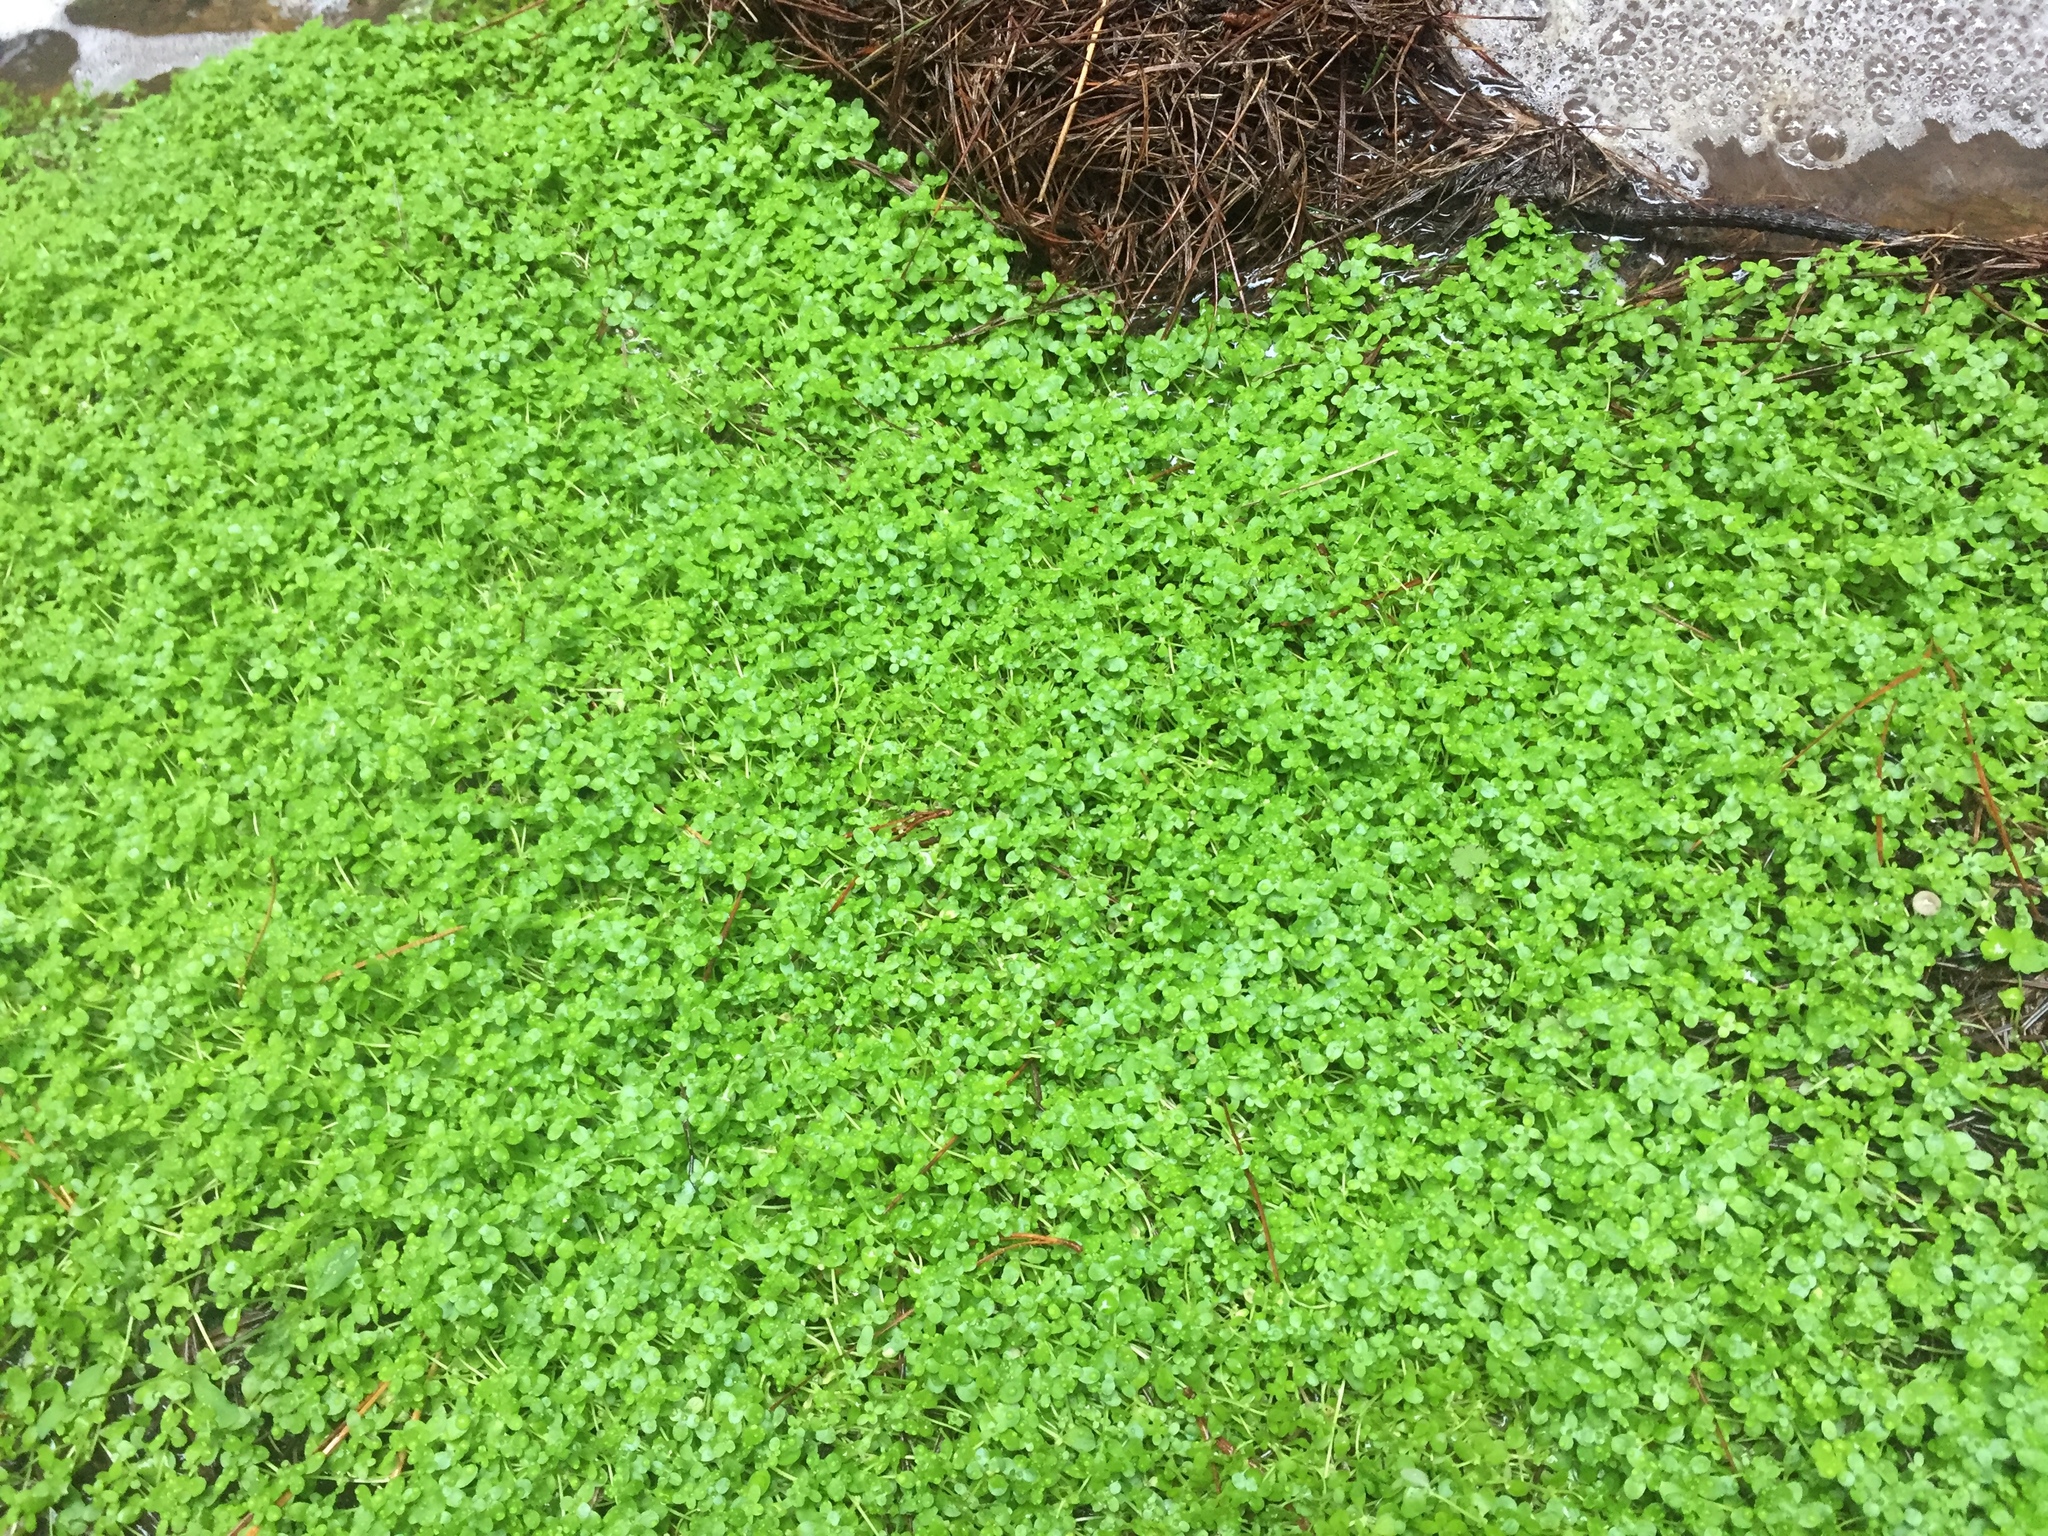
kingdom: Plantae
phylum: Tracheophyta
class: Magnoliopsida
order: Lamiales
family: Plantaginaceae
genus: Callitriche
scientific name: Callitriche stagnalis
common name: Common water-starwort
